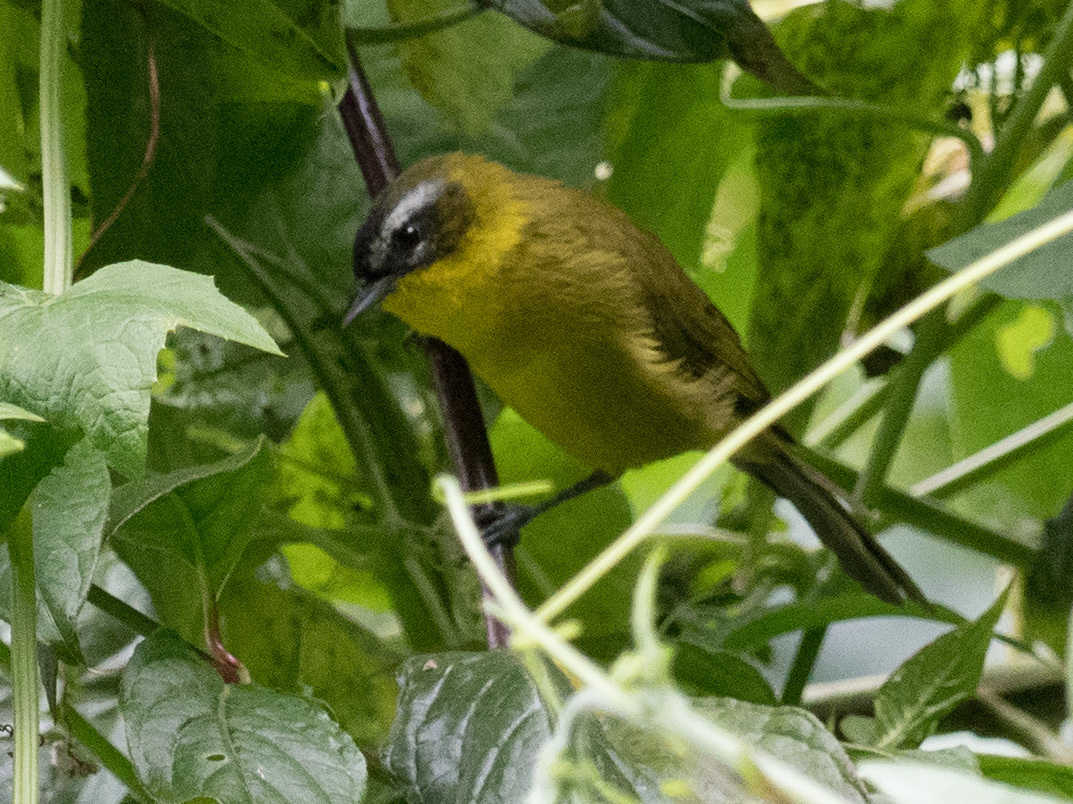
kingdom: Animalia
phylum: Chordata
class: Aves
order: Passeriformes
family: Thraupidae
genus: Thlypopsis
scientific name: Thlypopsis superciliaris
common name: Superciliaried hemispingus
